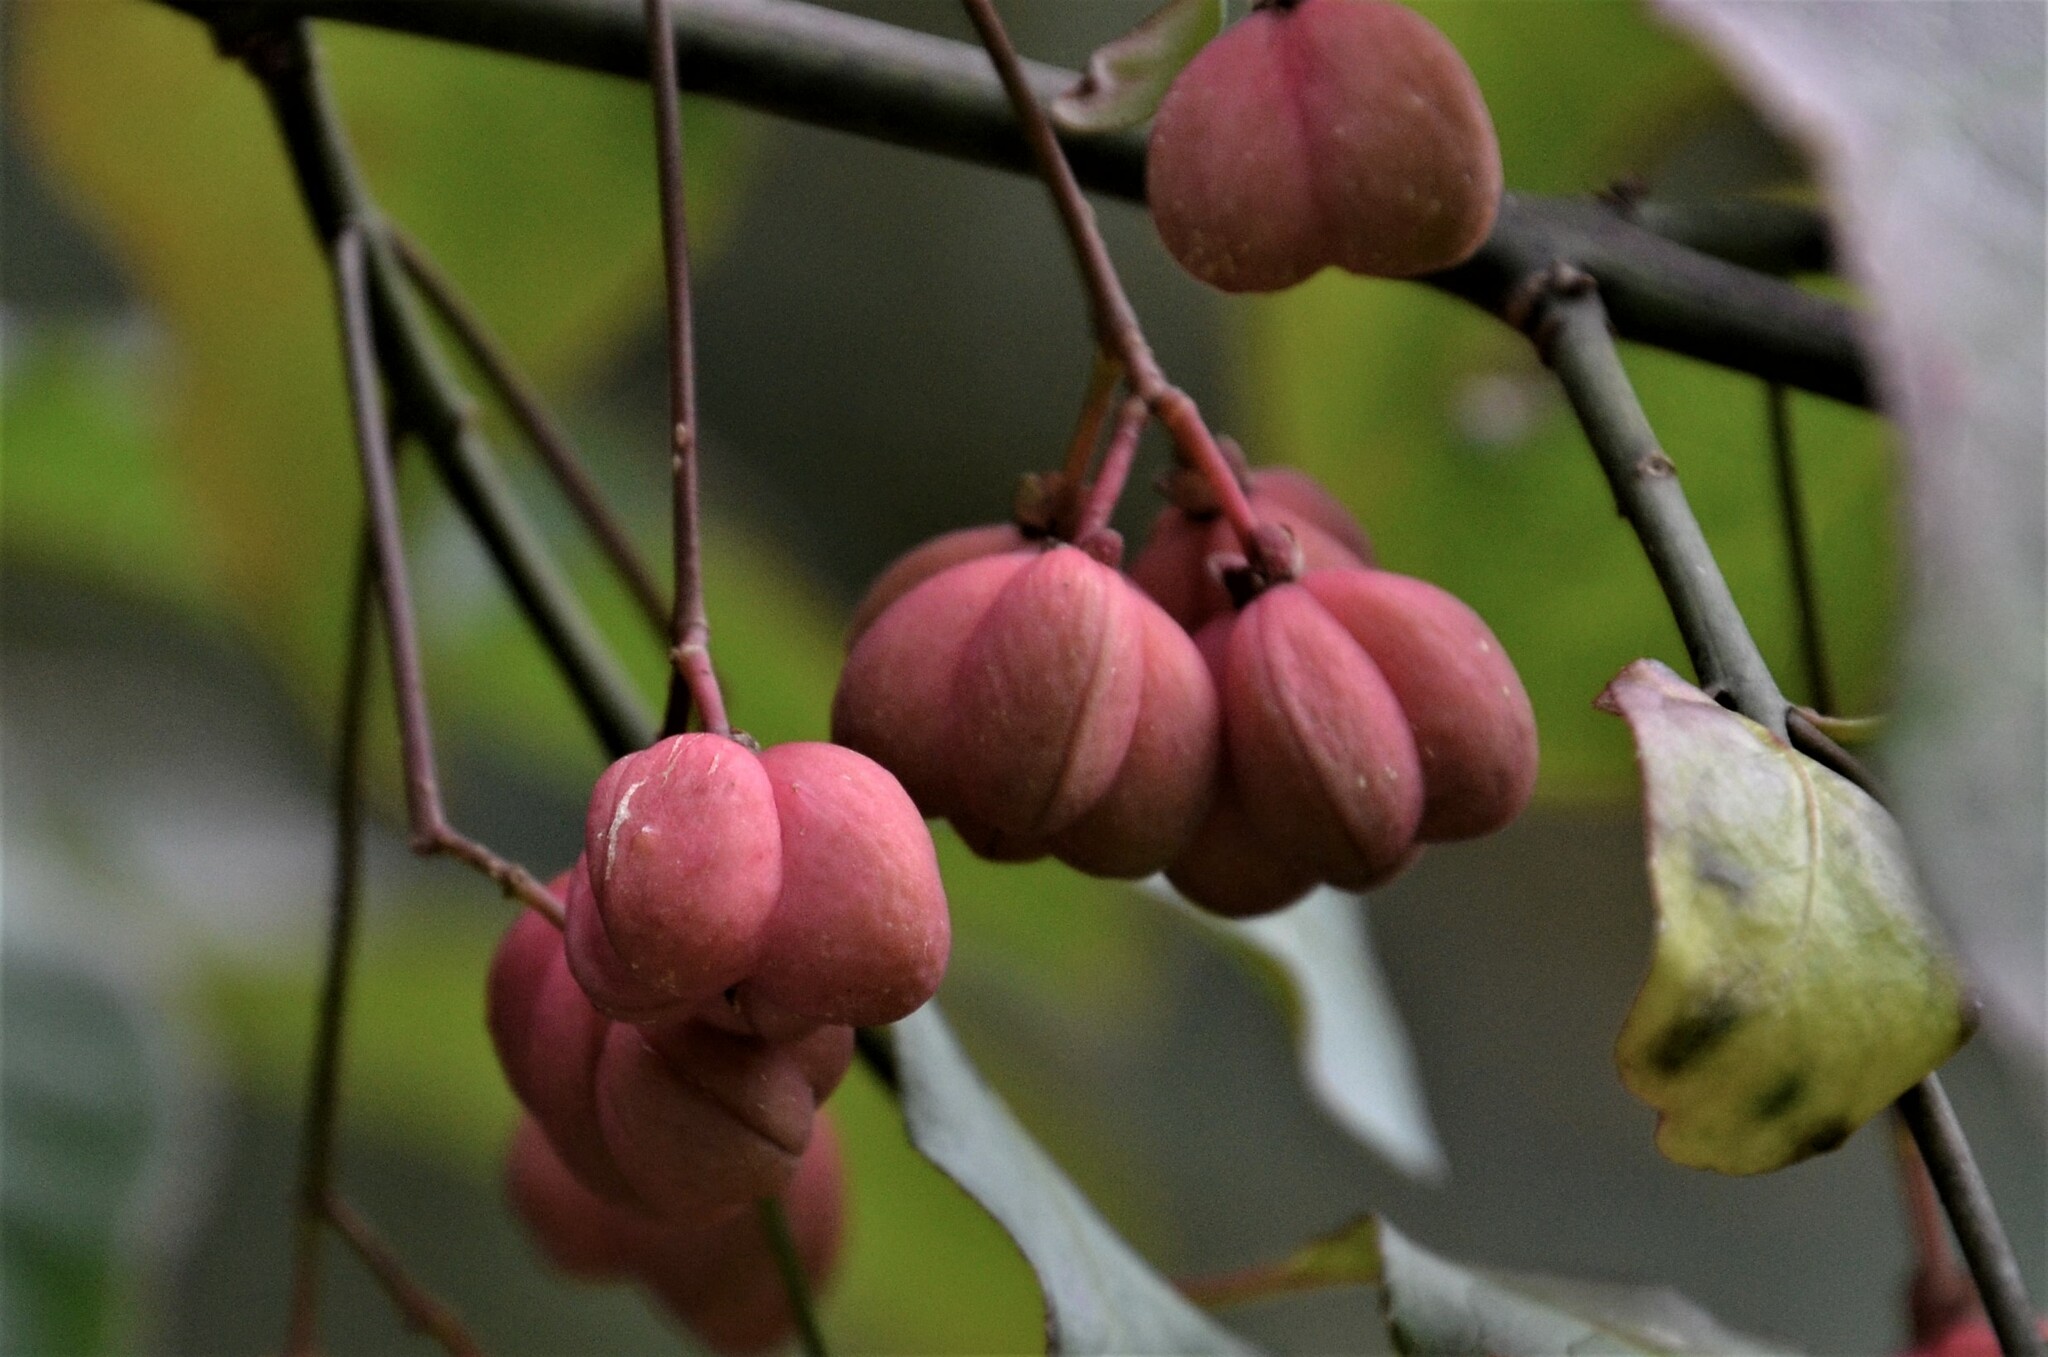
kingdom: Plantae
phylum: Tracheophyta
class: Magnoliopsida
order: Celastrales
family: Celastraceae
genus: Euonymus
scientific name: Euonymus europaeus
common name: Spindle
